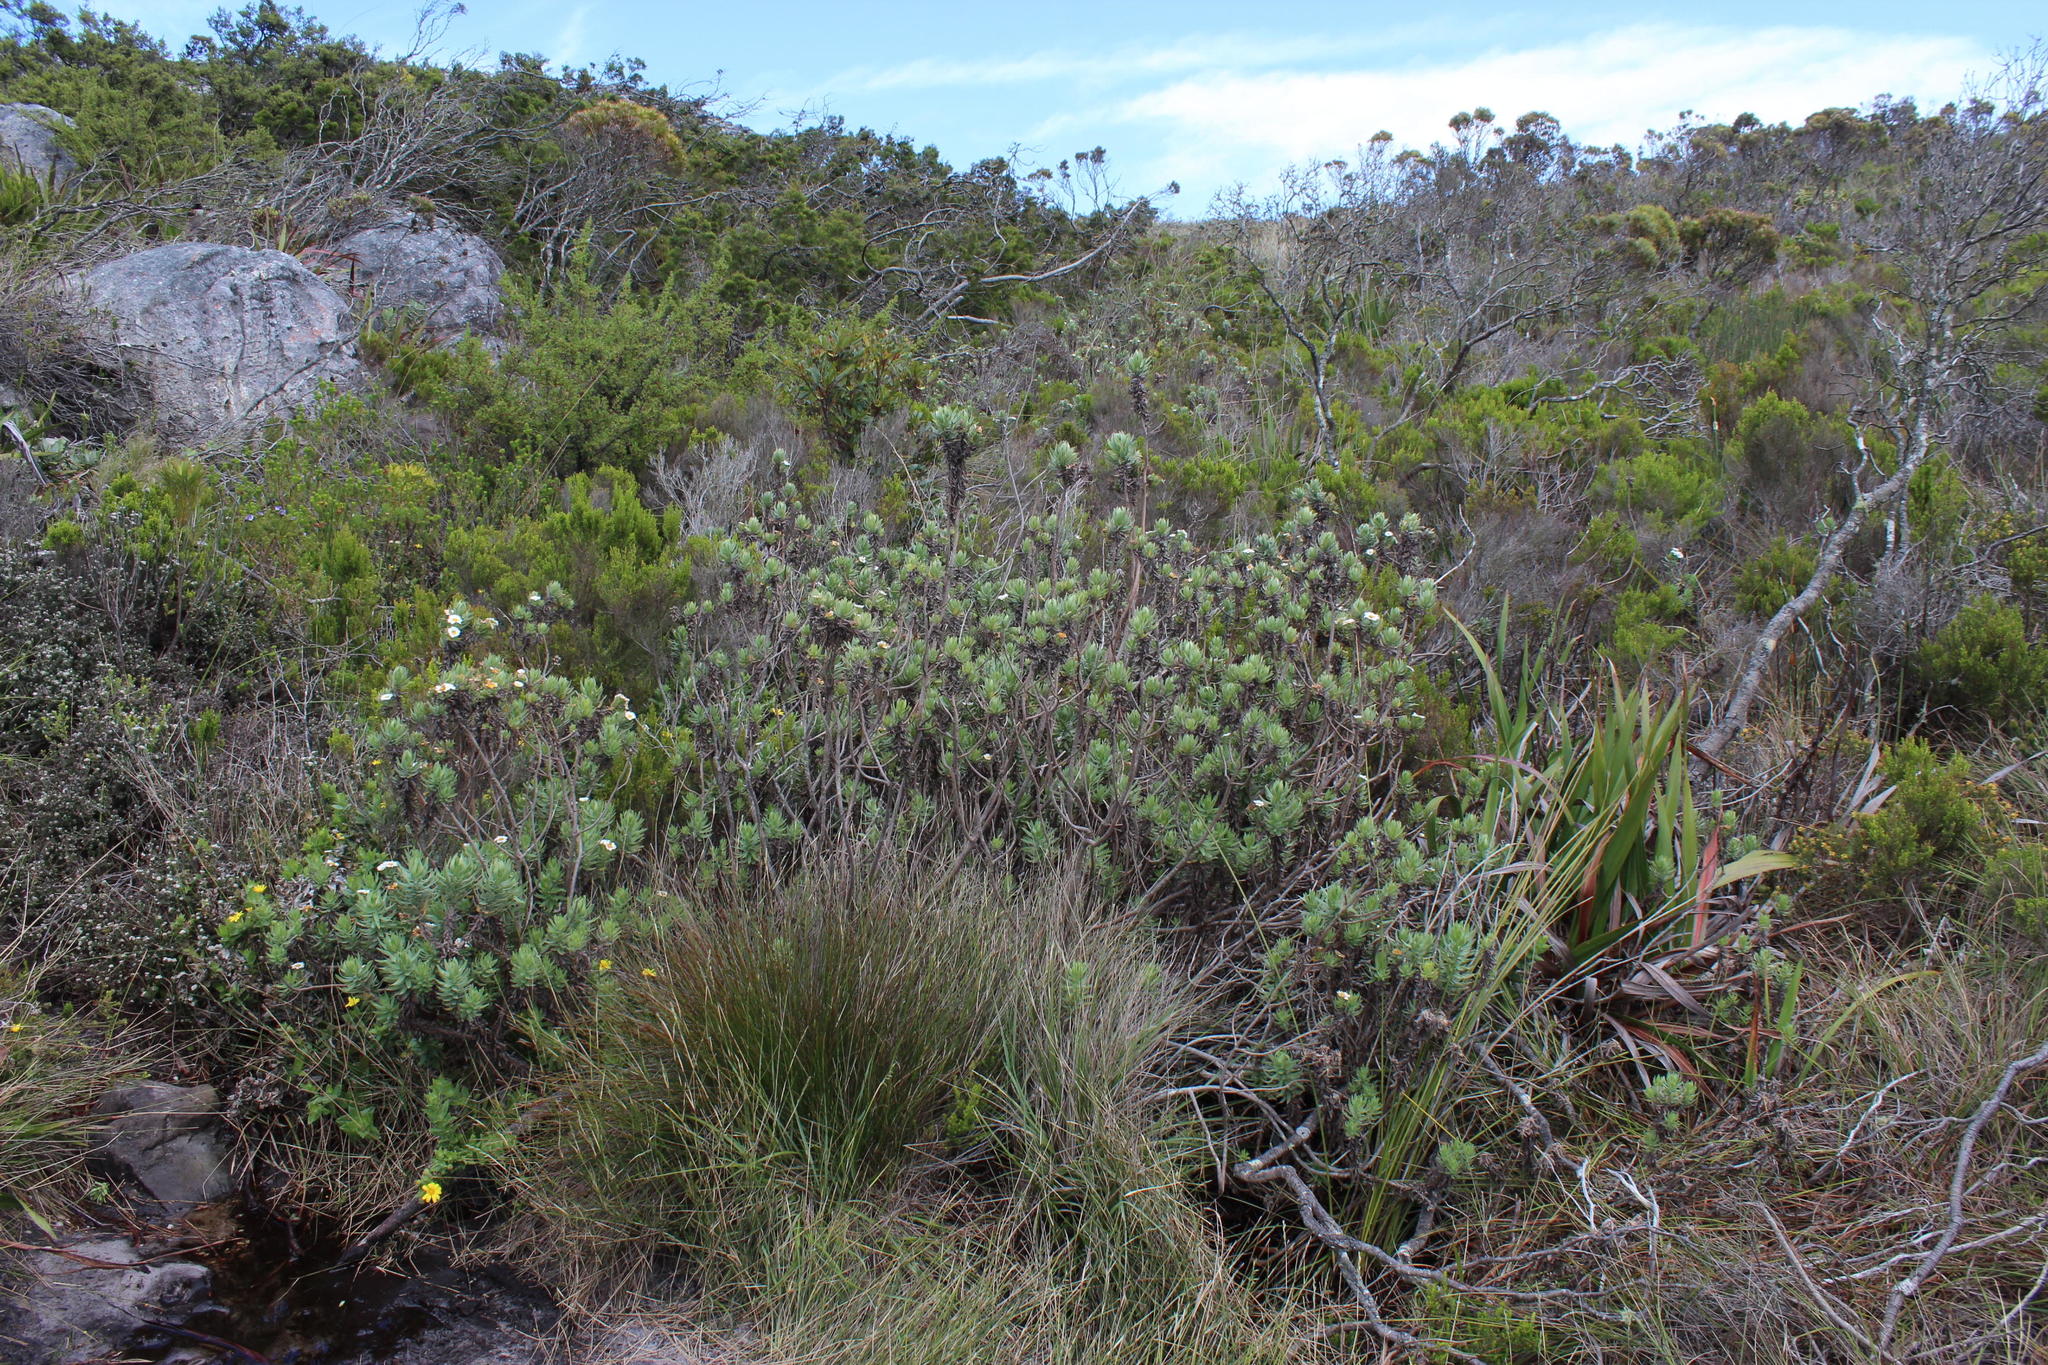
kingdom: Plantae
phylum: Tracheophyta
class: Magnoliopsida
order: Asterales
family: Asteraceae
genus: Osmitopsis
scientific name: Osmitopsis asteriscoides
